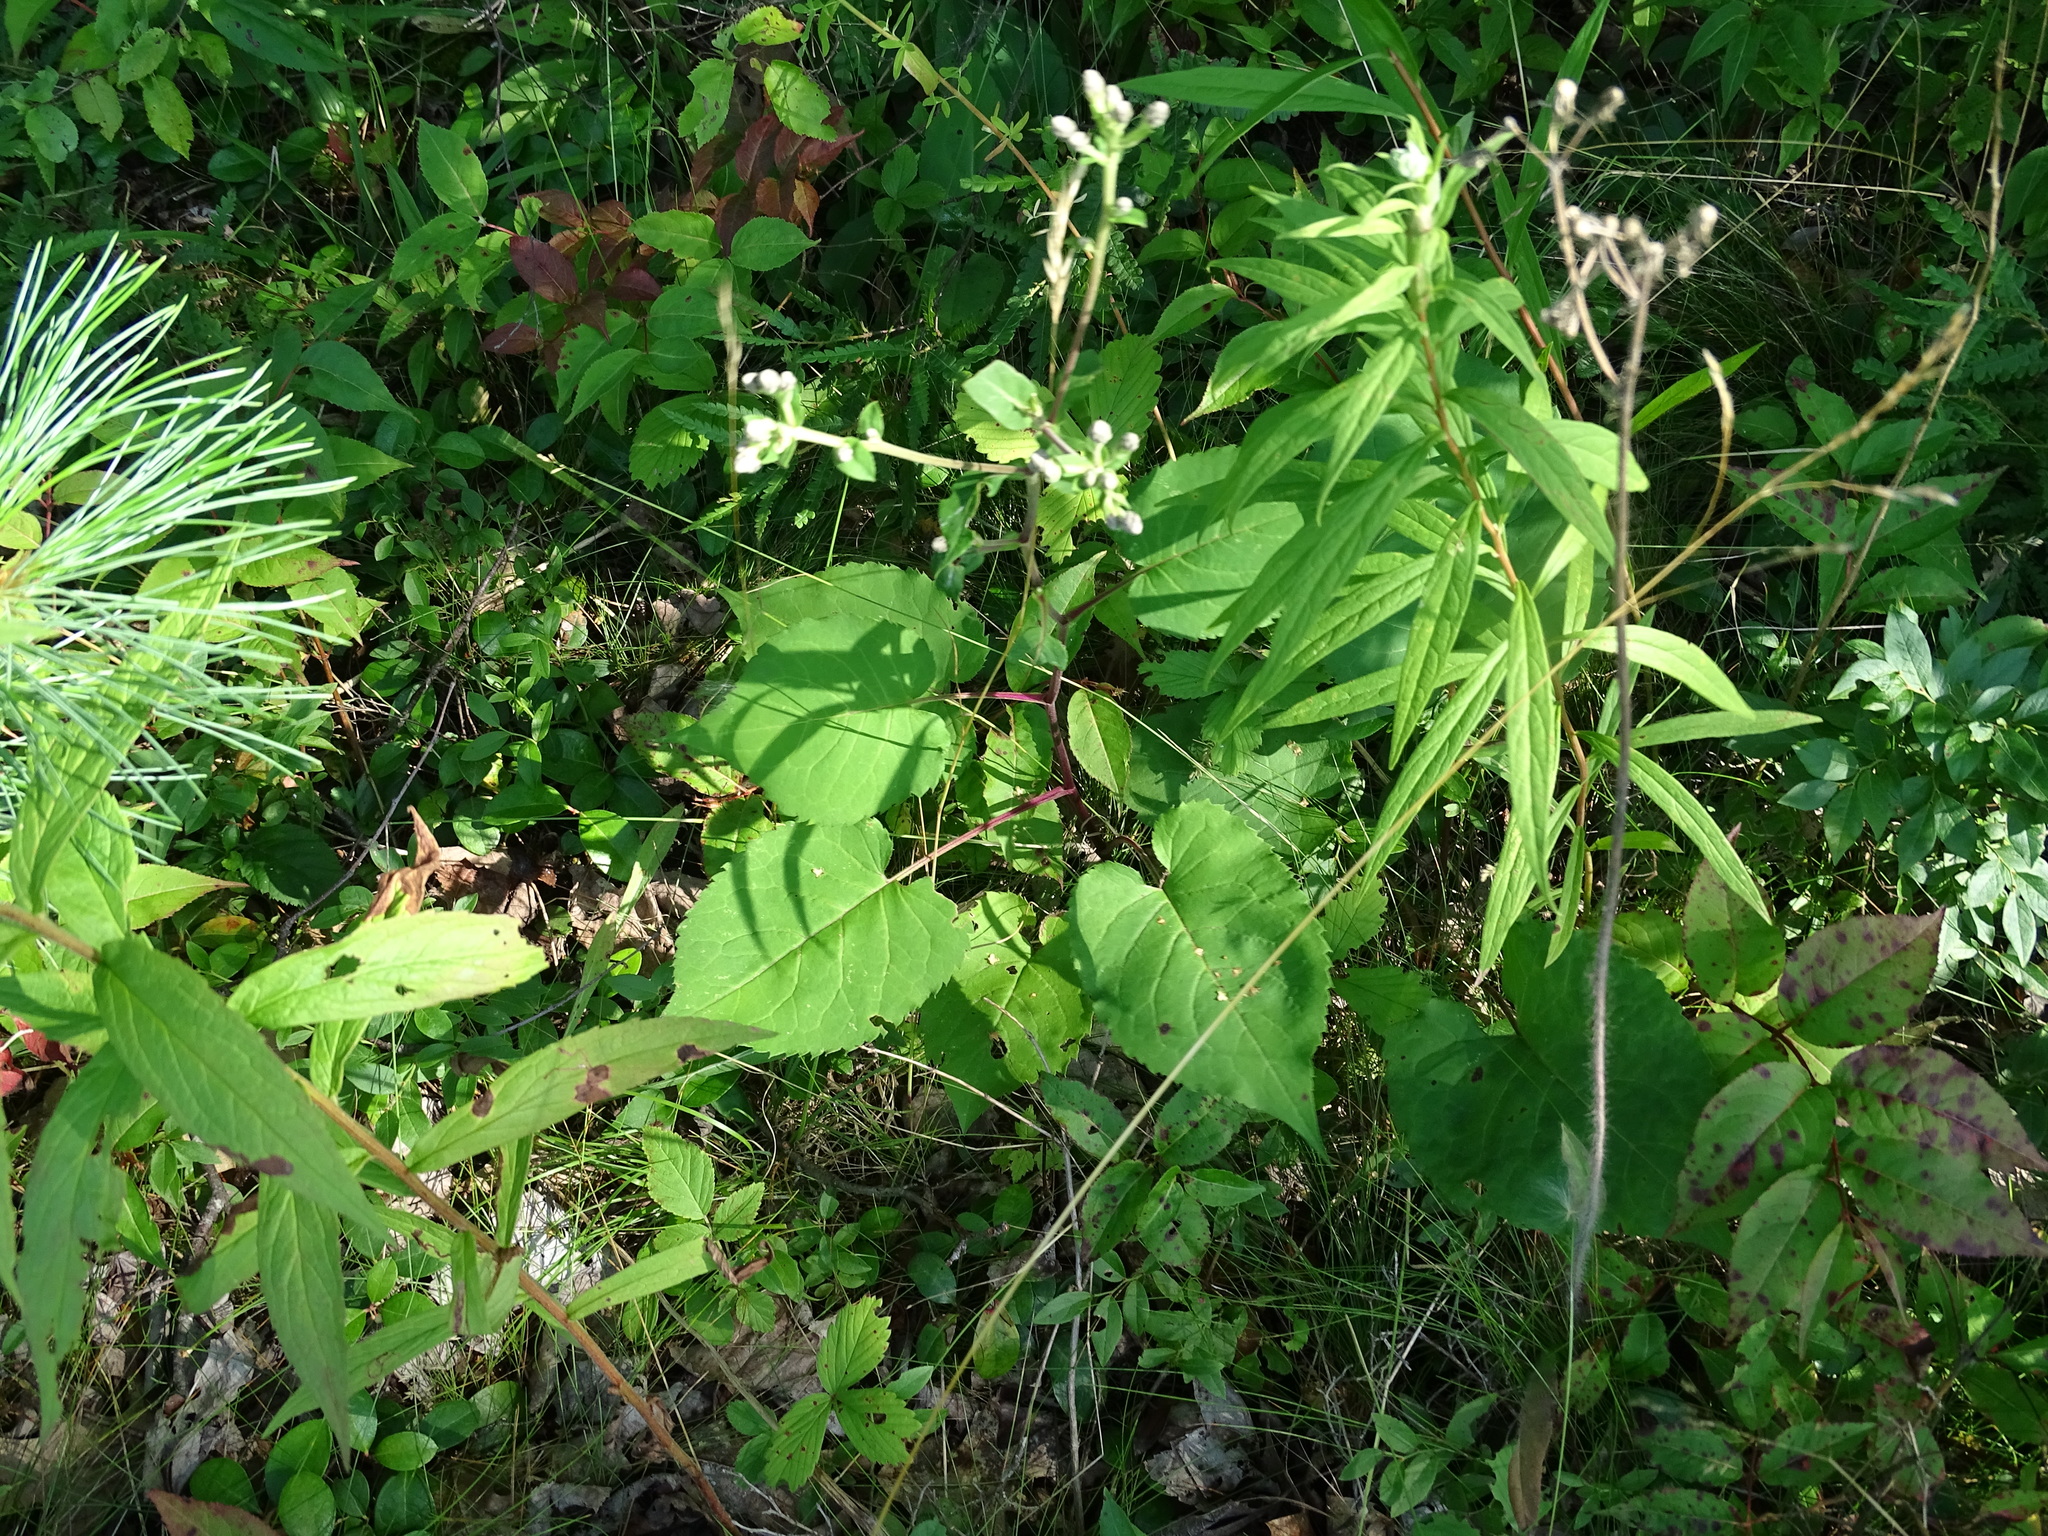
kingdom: Plantae
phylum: Tracheophyta
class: Magnoliopsida
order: Asterales
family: Asteraceae
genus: Eurybia
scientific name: Eurybia macrophylla
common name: Big-leaved aster
